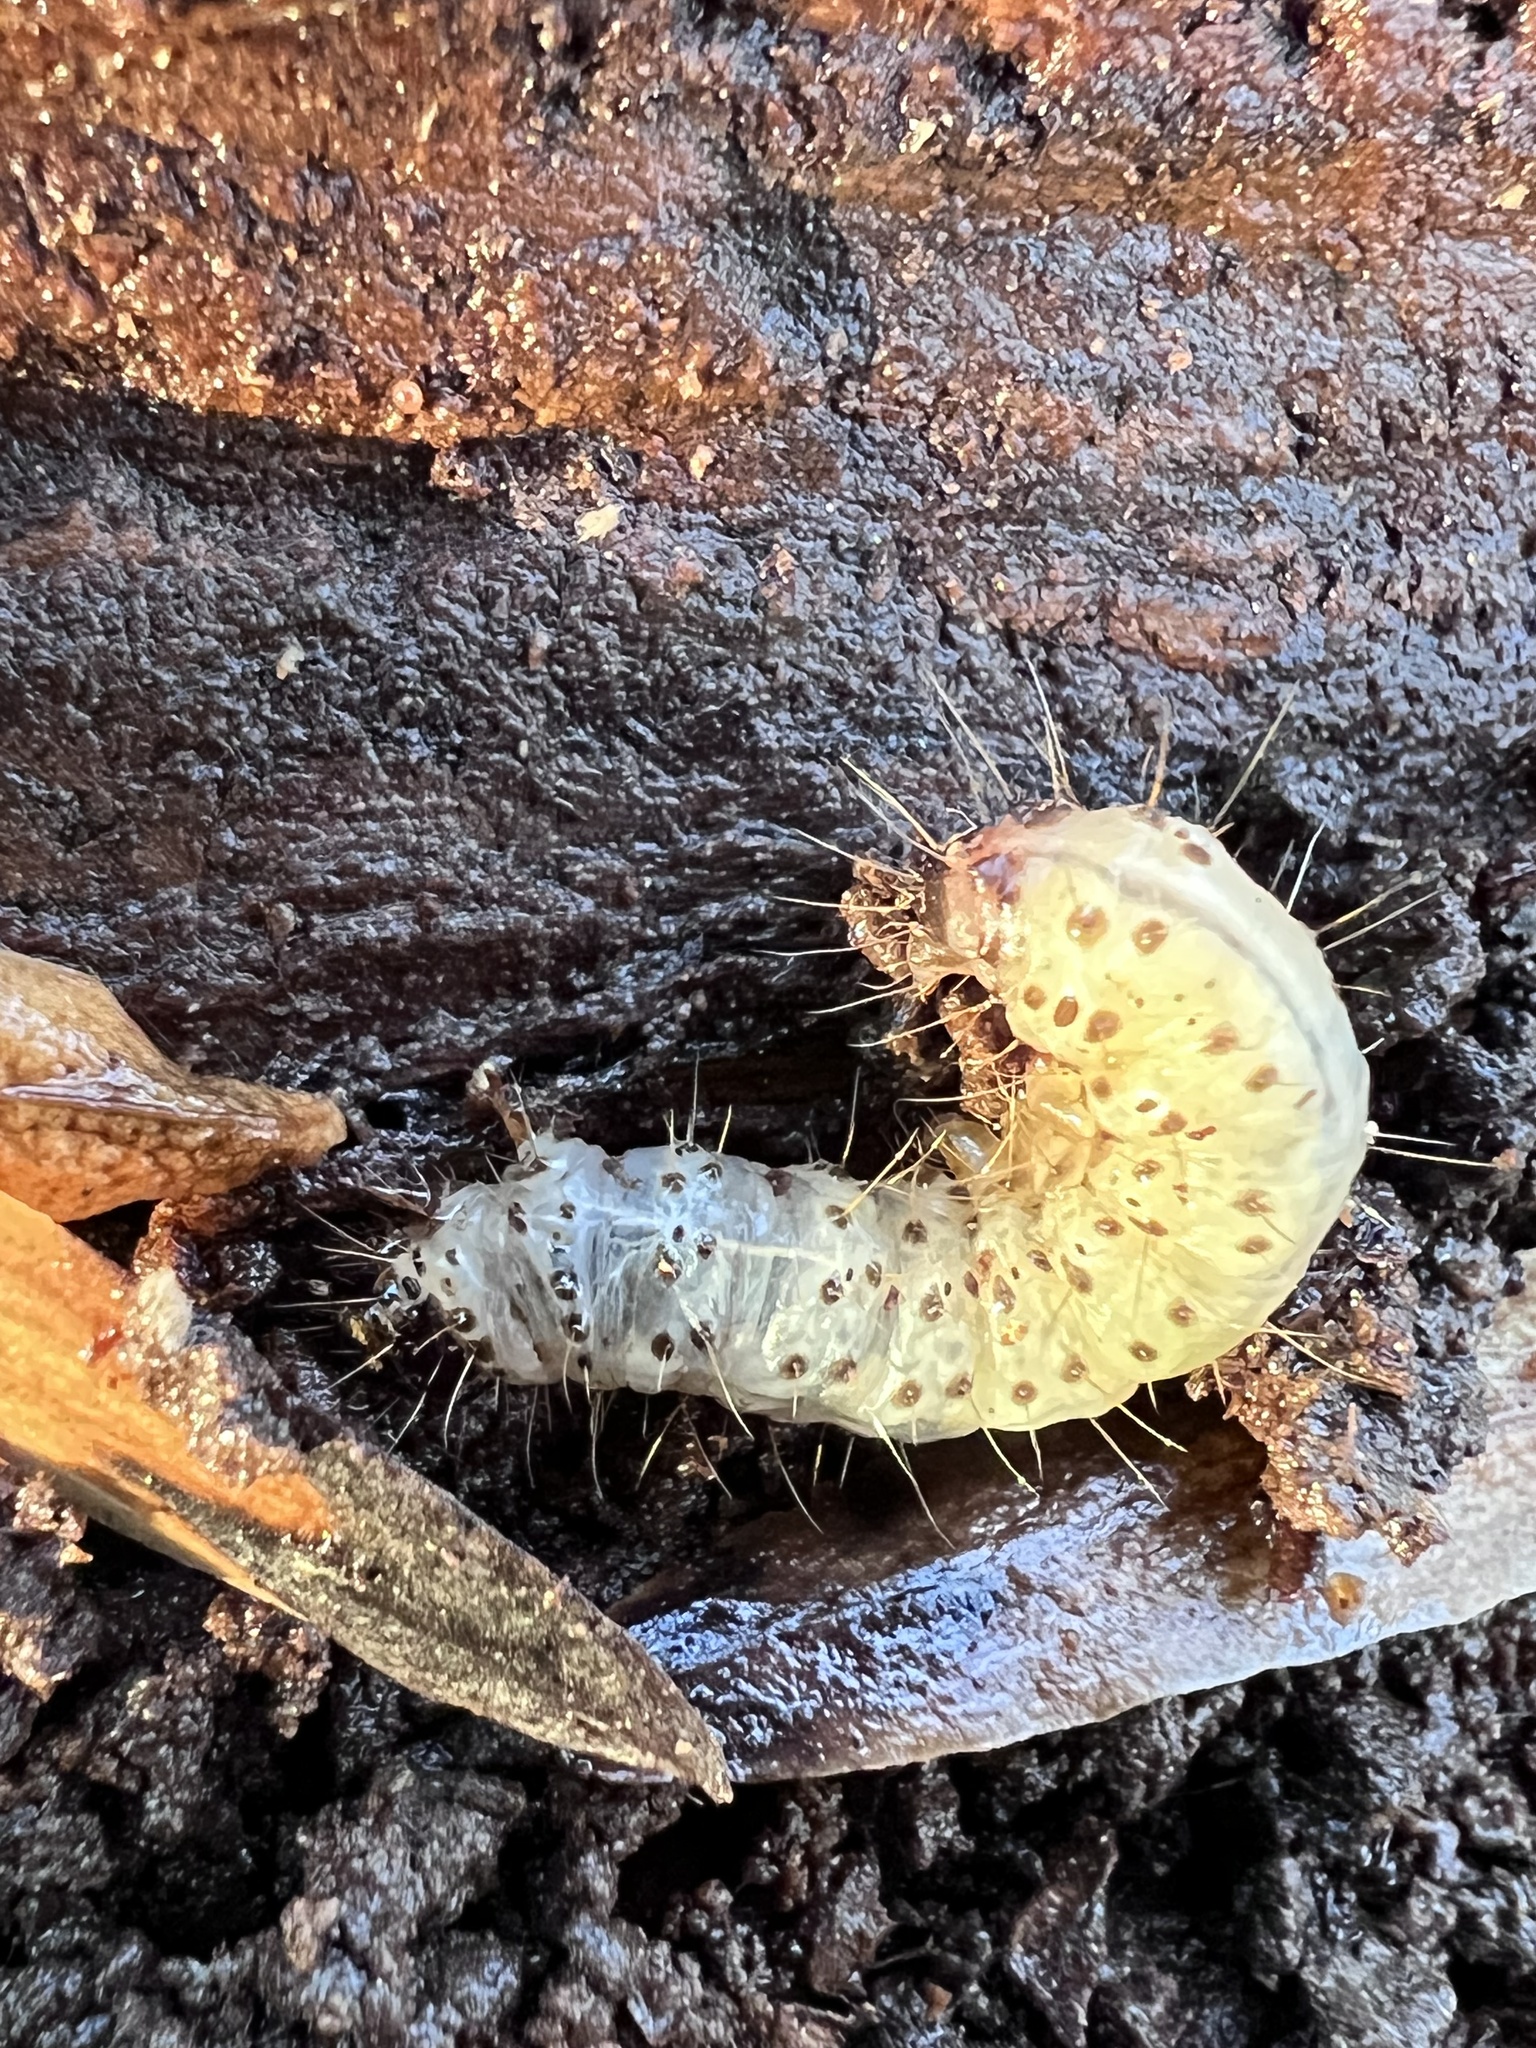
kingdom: Animalia
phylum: Arthropoda
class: Insecta
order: Lepidoptera
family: Erebidae
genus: Scolecocampa
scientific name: Scolecocampa liburna
